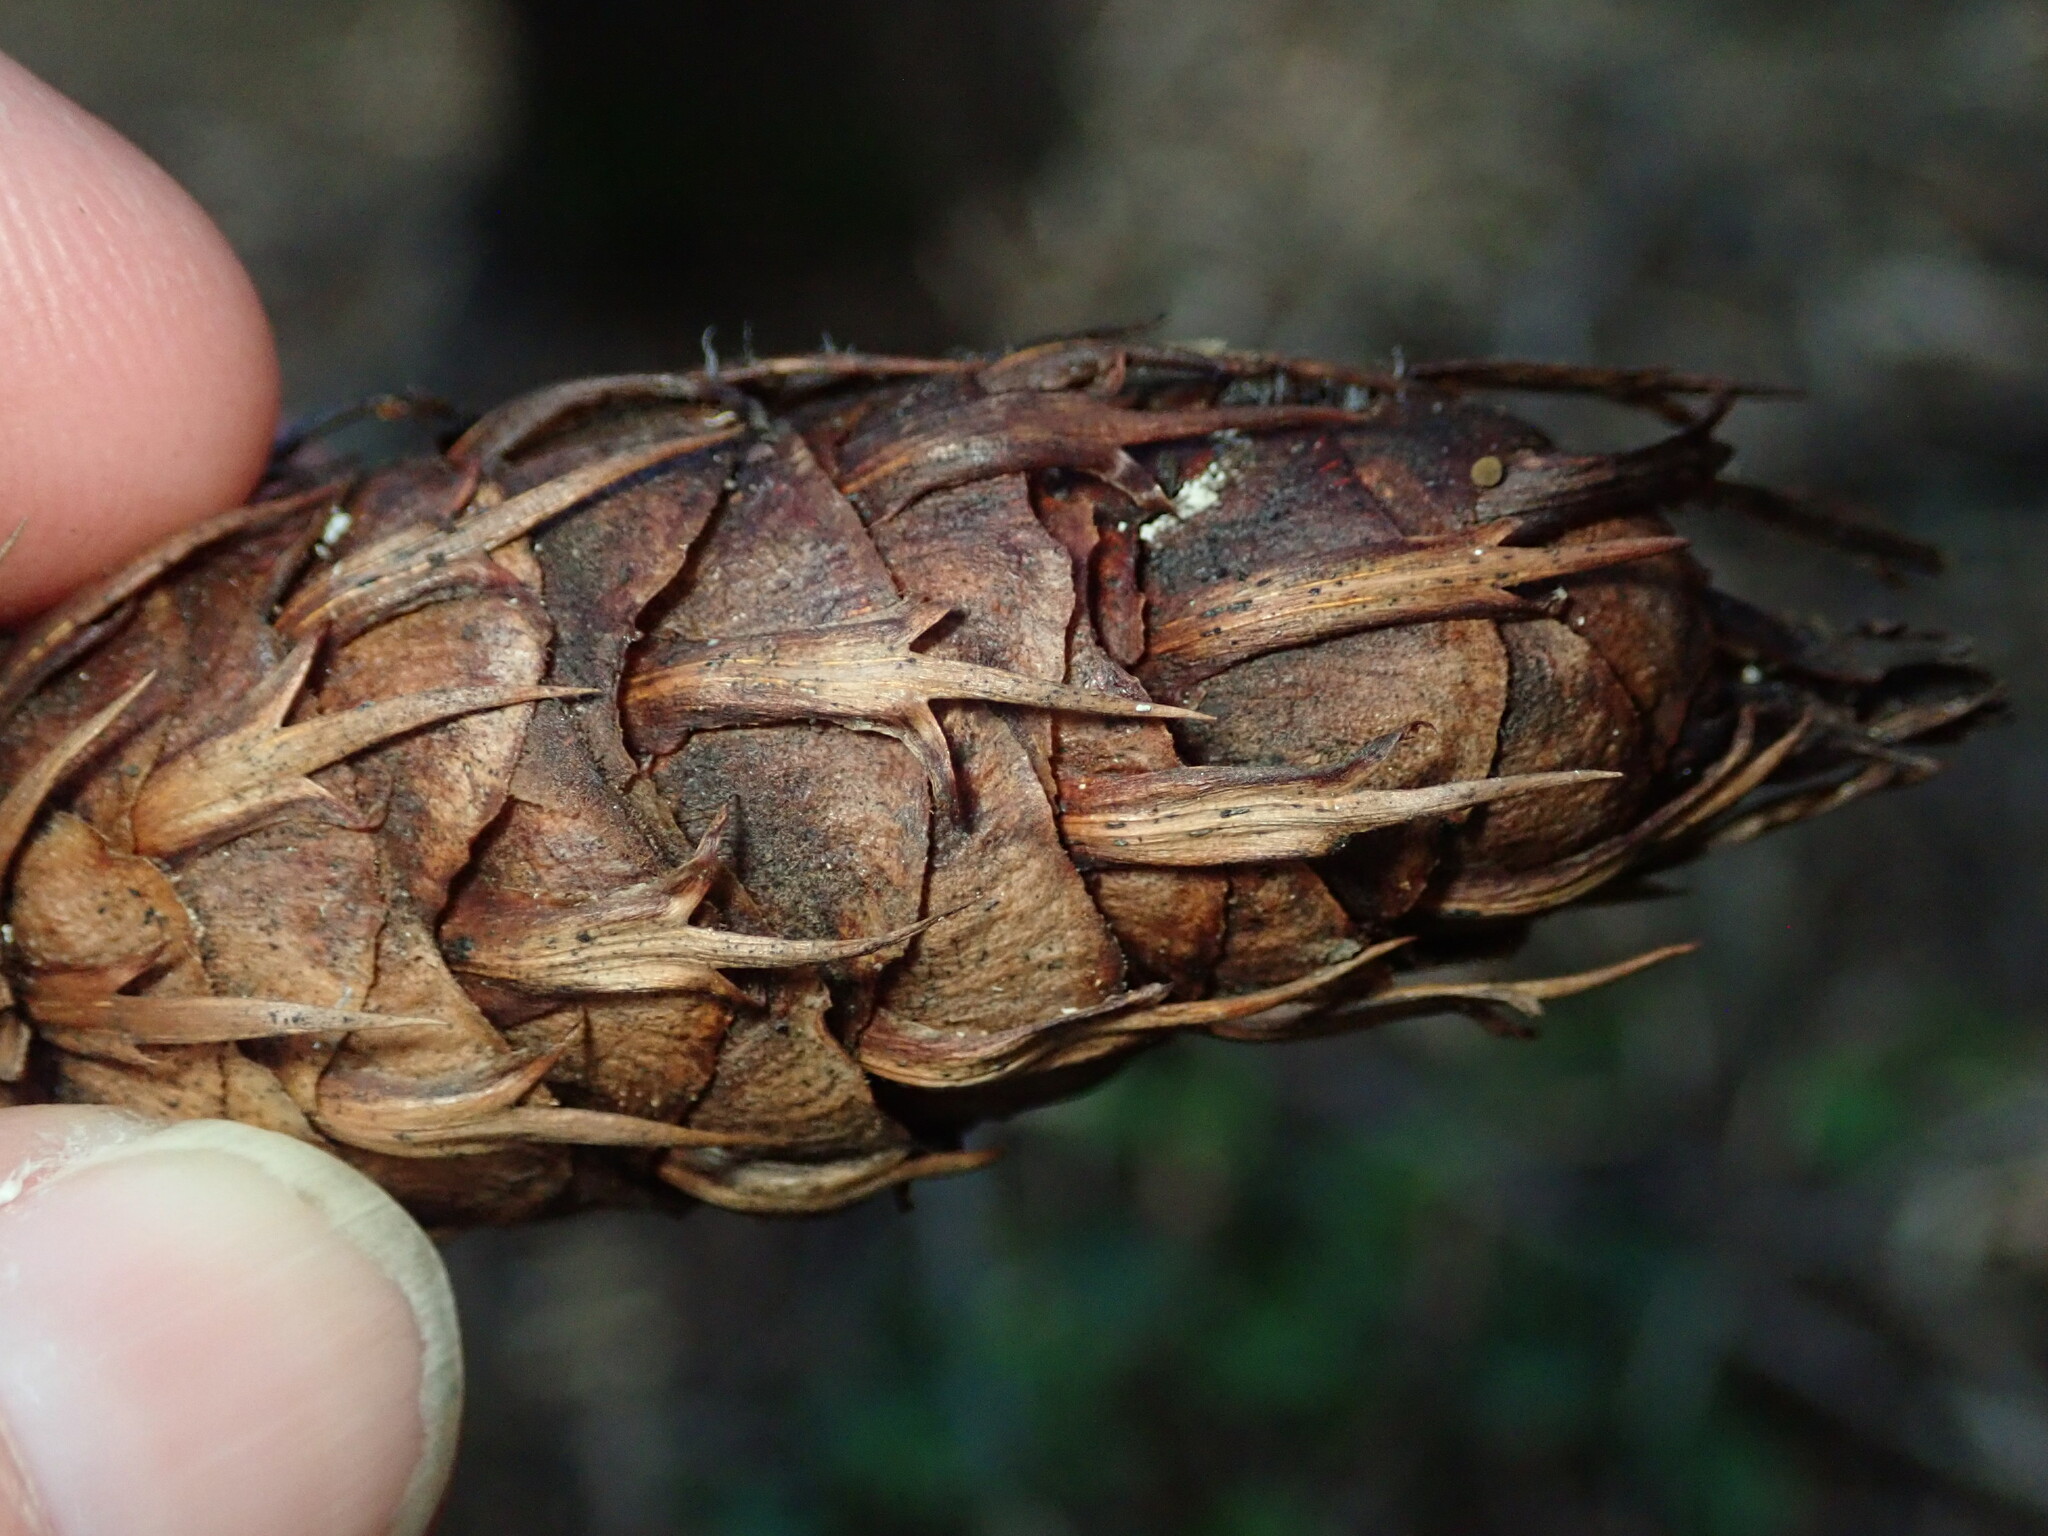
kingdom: Fungi
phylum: Basidiomycota
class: Agaricomycetes
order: Hymenochaetales
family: Hymenochaetaceae
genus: Porodaedalea
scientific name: Porodaedalea pini
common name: Pine bracket
